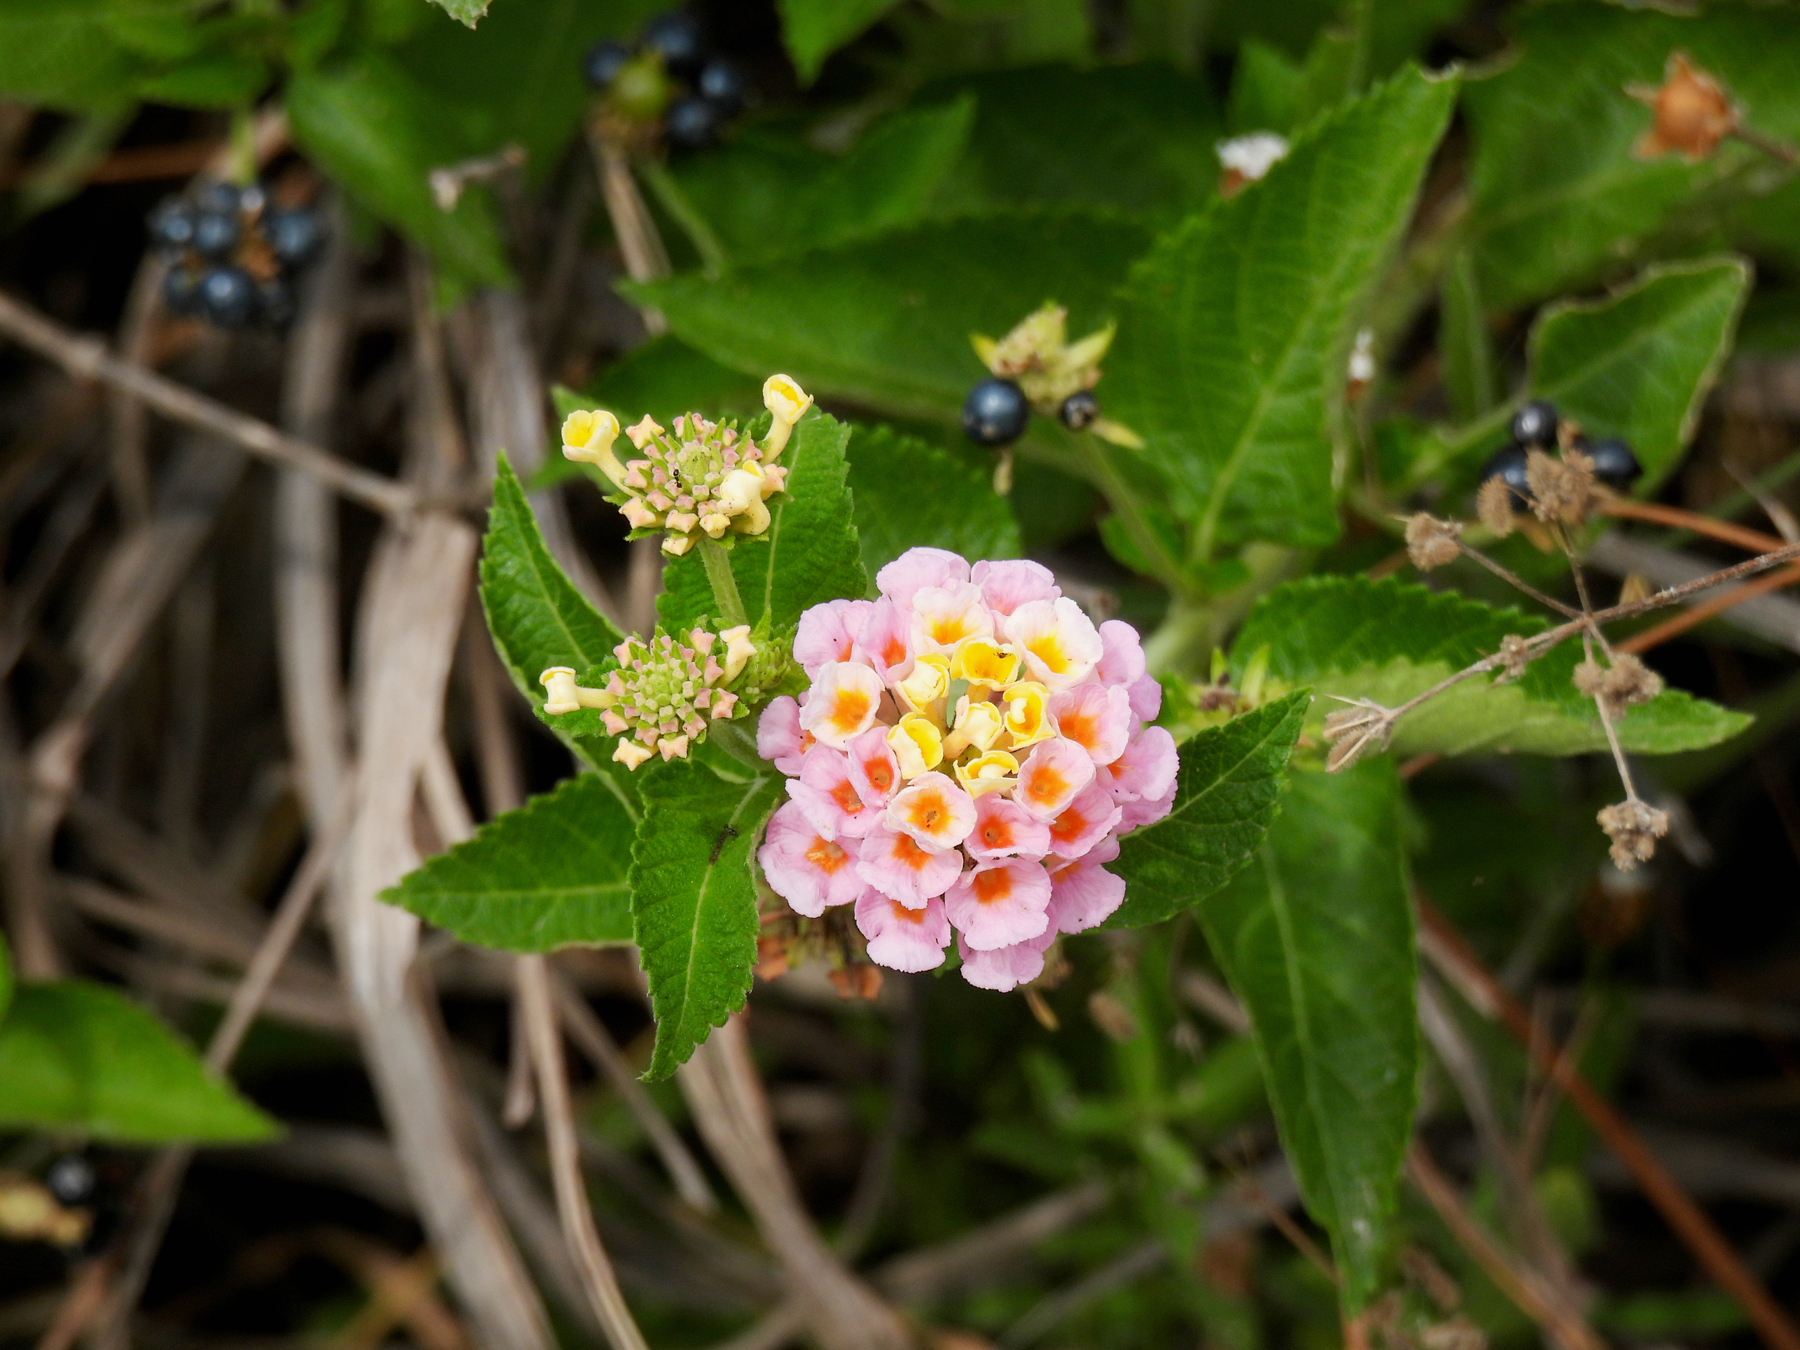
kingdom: Plantae
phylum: Tracheophyta
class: Magnoliopsida
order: Lamiales
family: Verbenaceae
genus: Lantana
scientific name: Lantana strigocamara
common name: Lantana
